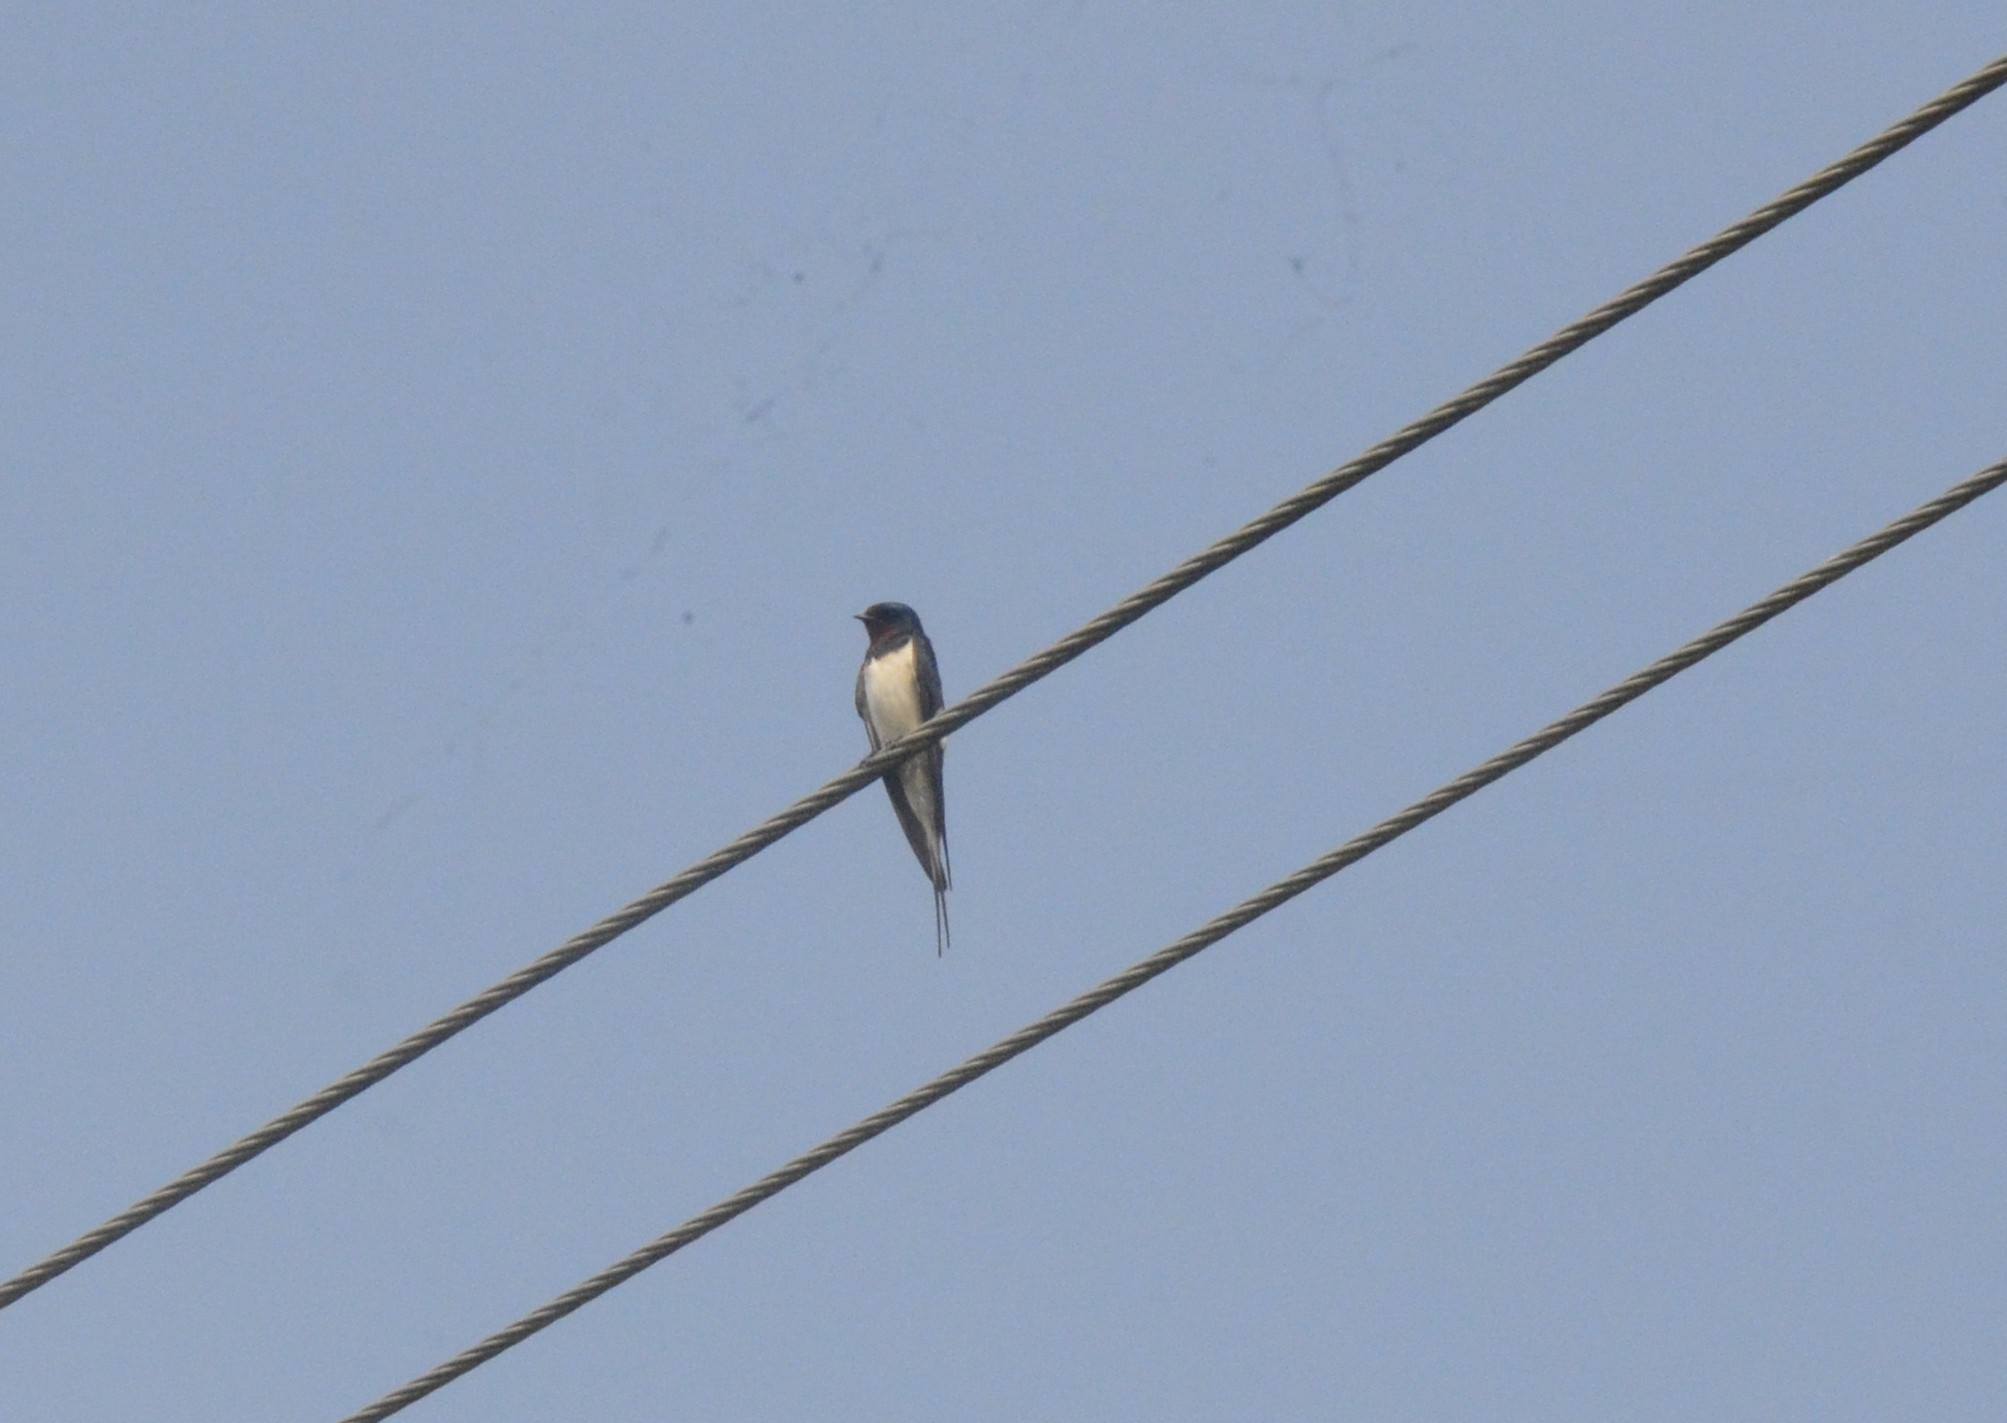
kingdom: Animalia
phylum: Chordata
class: Aves
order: Passeriformes
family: Hirundinidae
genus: Hirundo
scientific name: Hirundo rustica
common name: Barn swallow
